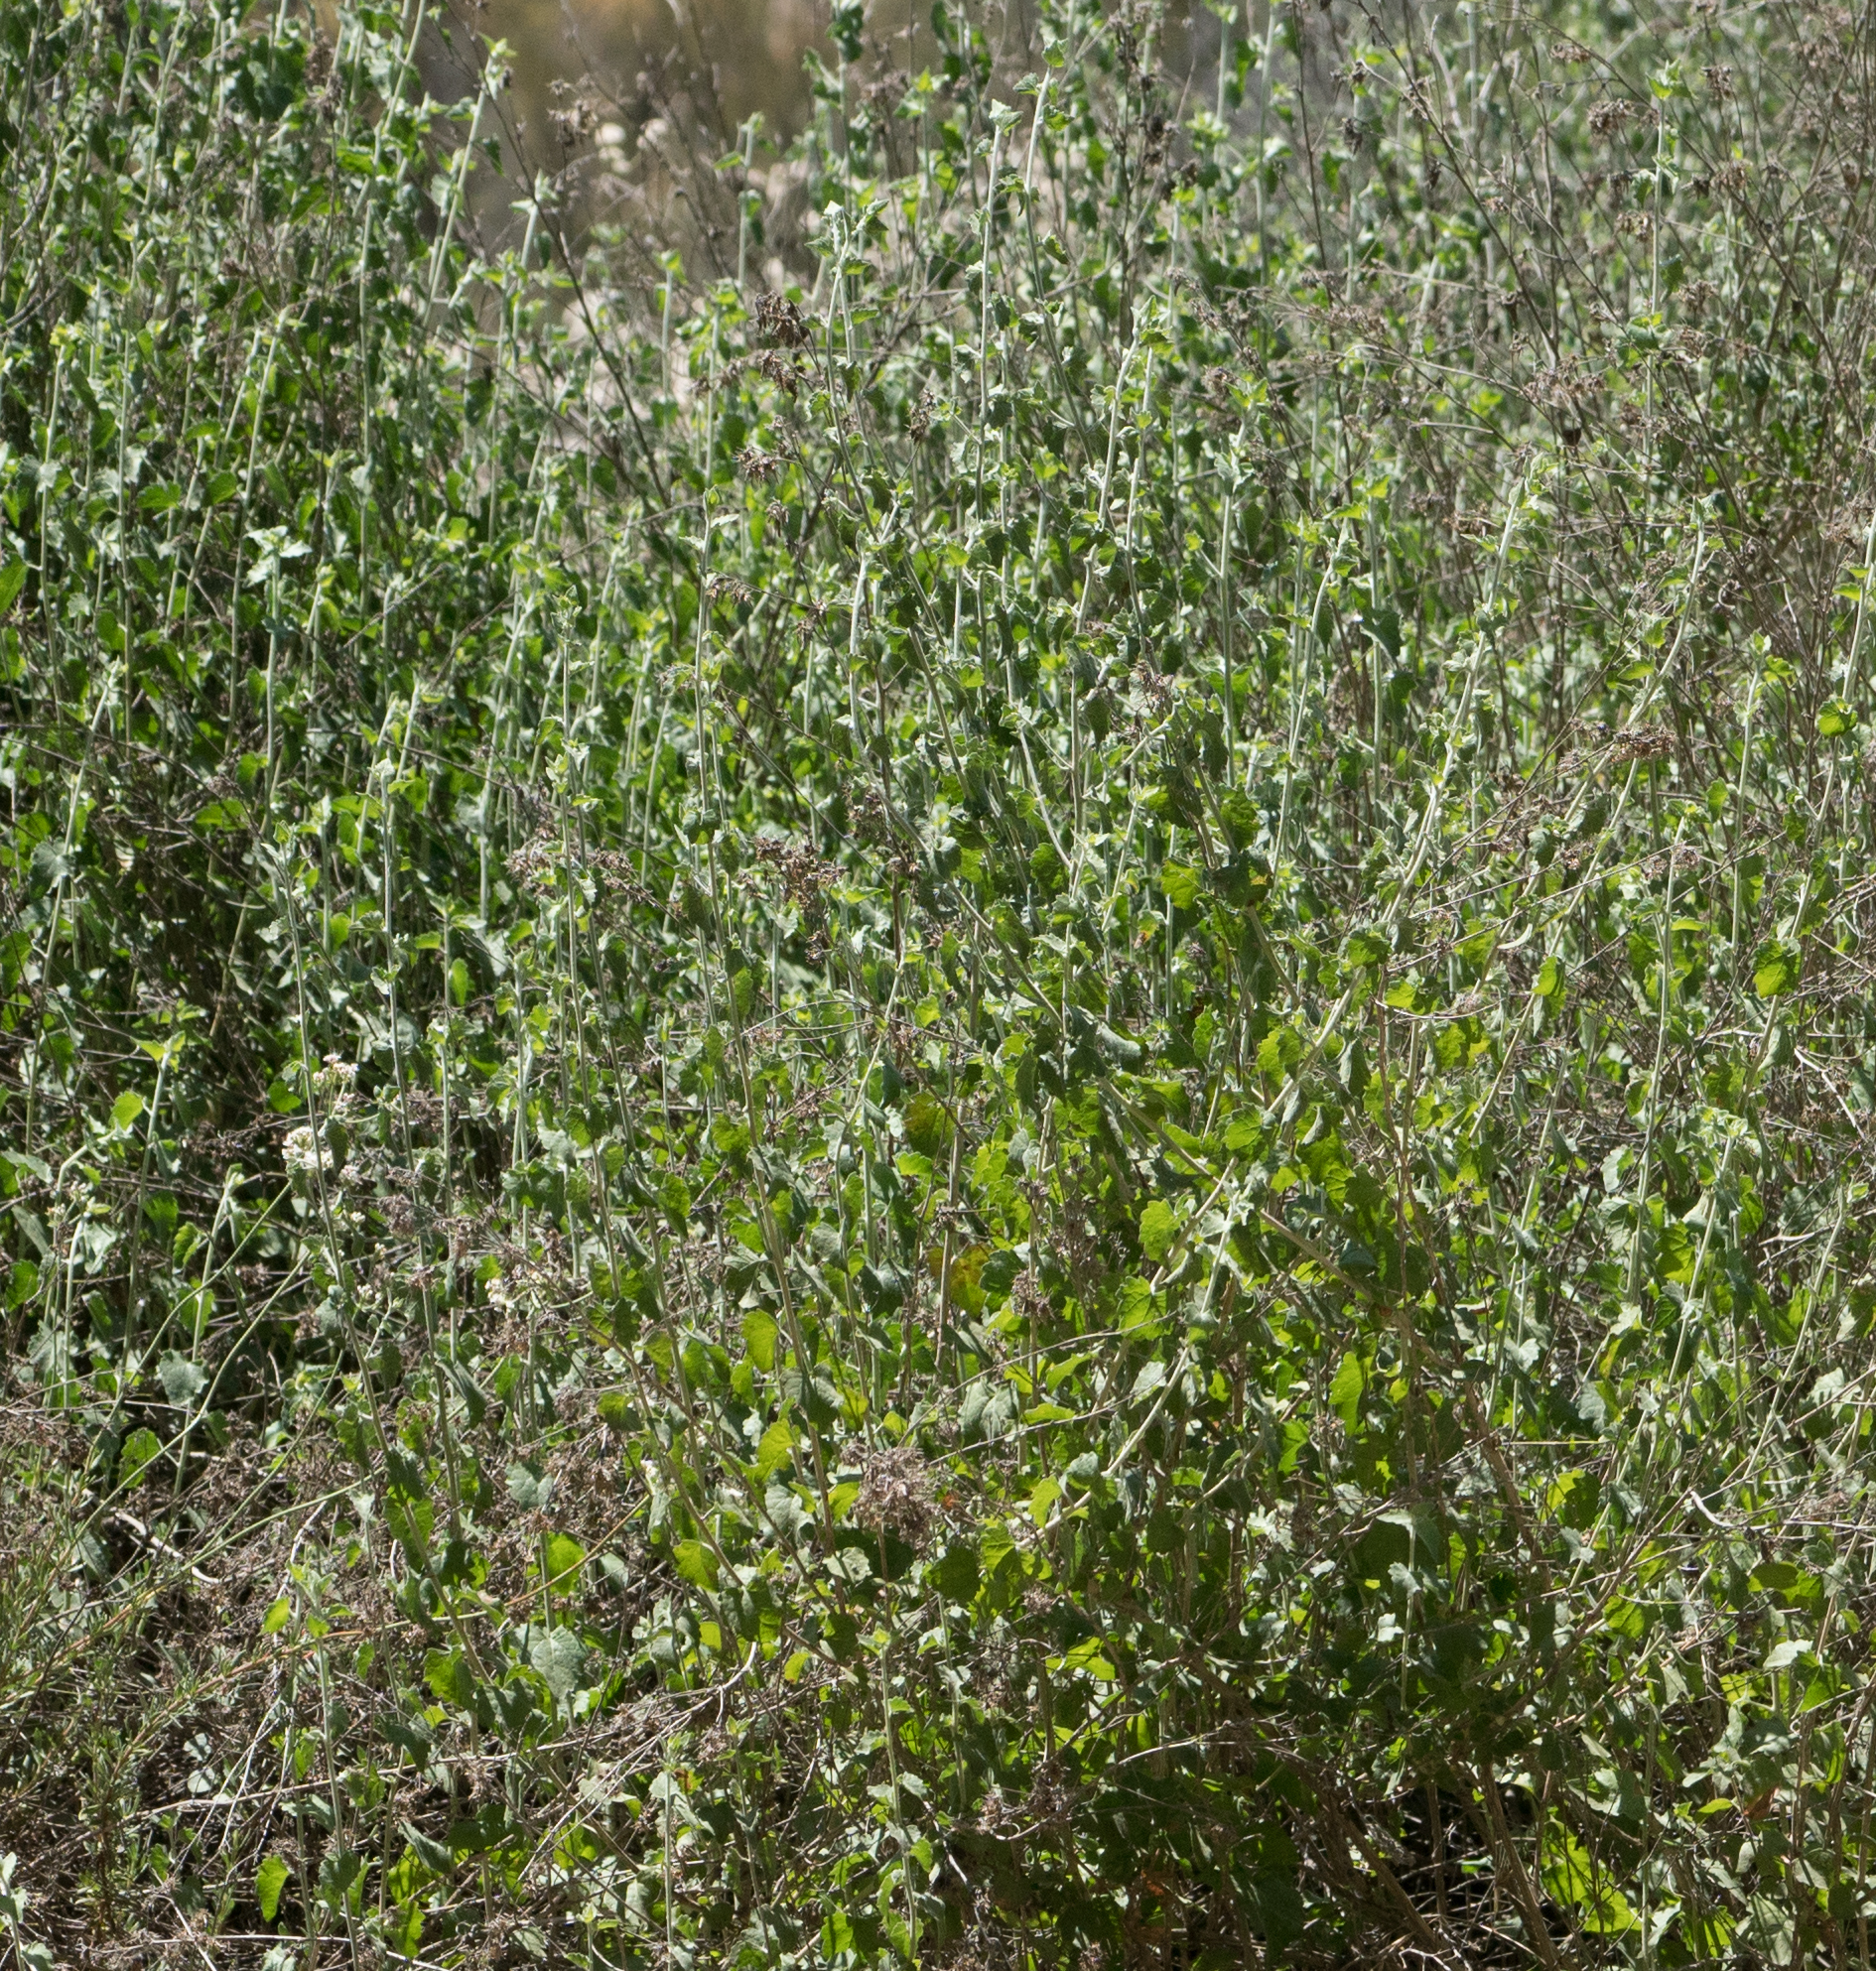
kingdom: Plantae
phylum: Tracheophyta
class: Magnoliopsida
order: Asterales
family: Asteraceae
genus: Brickellia
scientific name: Brickellia californica
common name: California brickellbush
